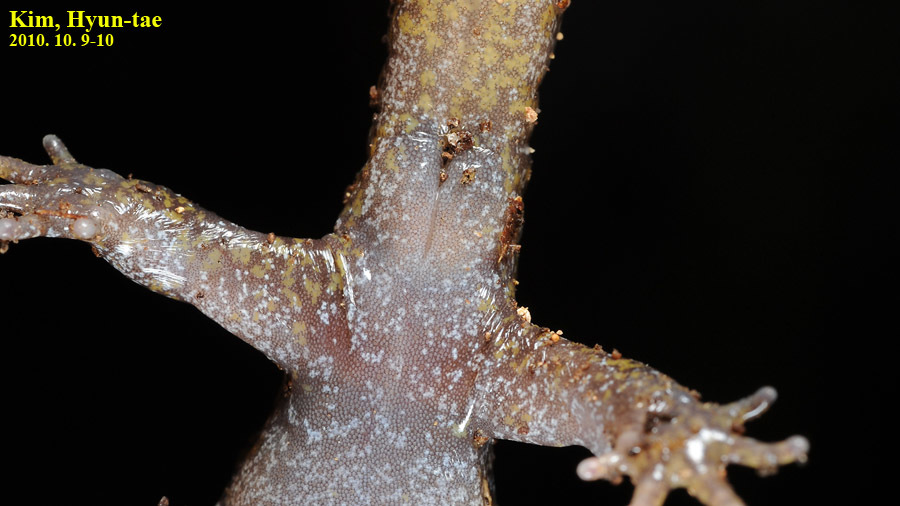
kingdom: Animalia
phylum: Chordata
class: Amphibia
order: Caudata
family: Hynobiidae
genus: Hynobius
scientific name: Hynobius leechii
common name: Gensan salamander
